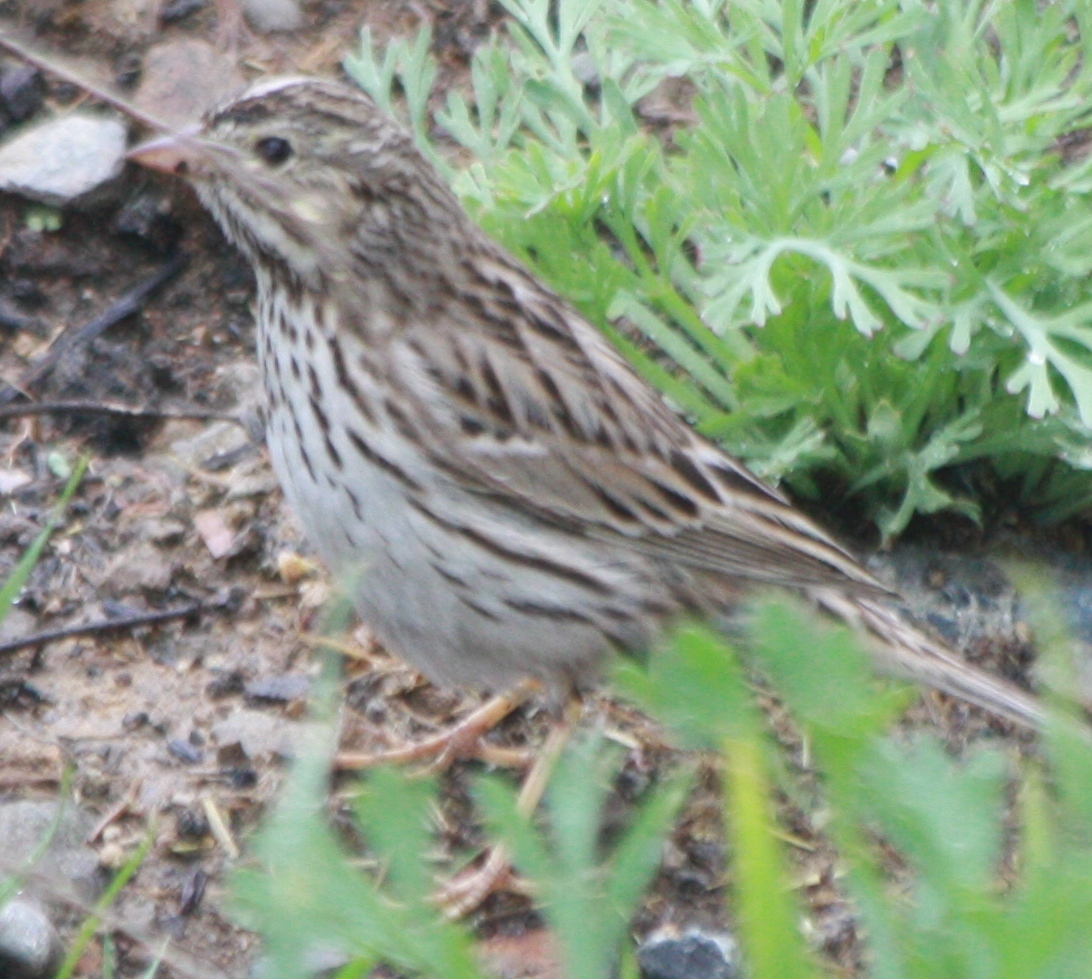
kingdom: Animalia
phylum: Chordata
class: Aves
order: Passeriformes
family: Passerellidae
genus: Passerculus
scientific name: Passerculus sandwichensis
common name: Savannah sparrow
